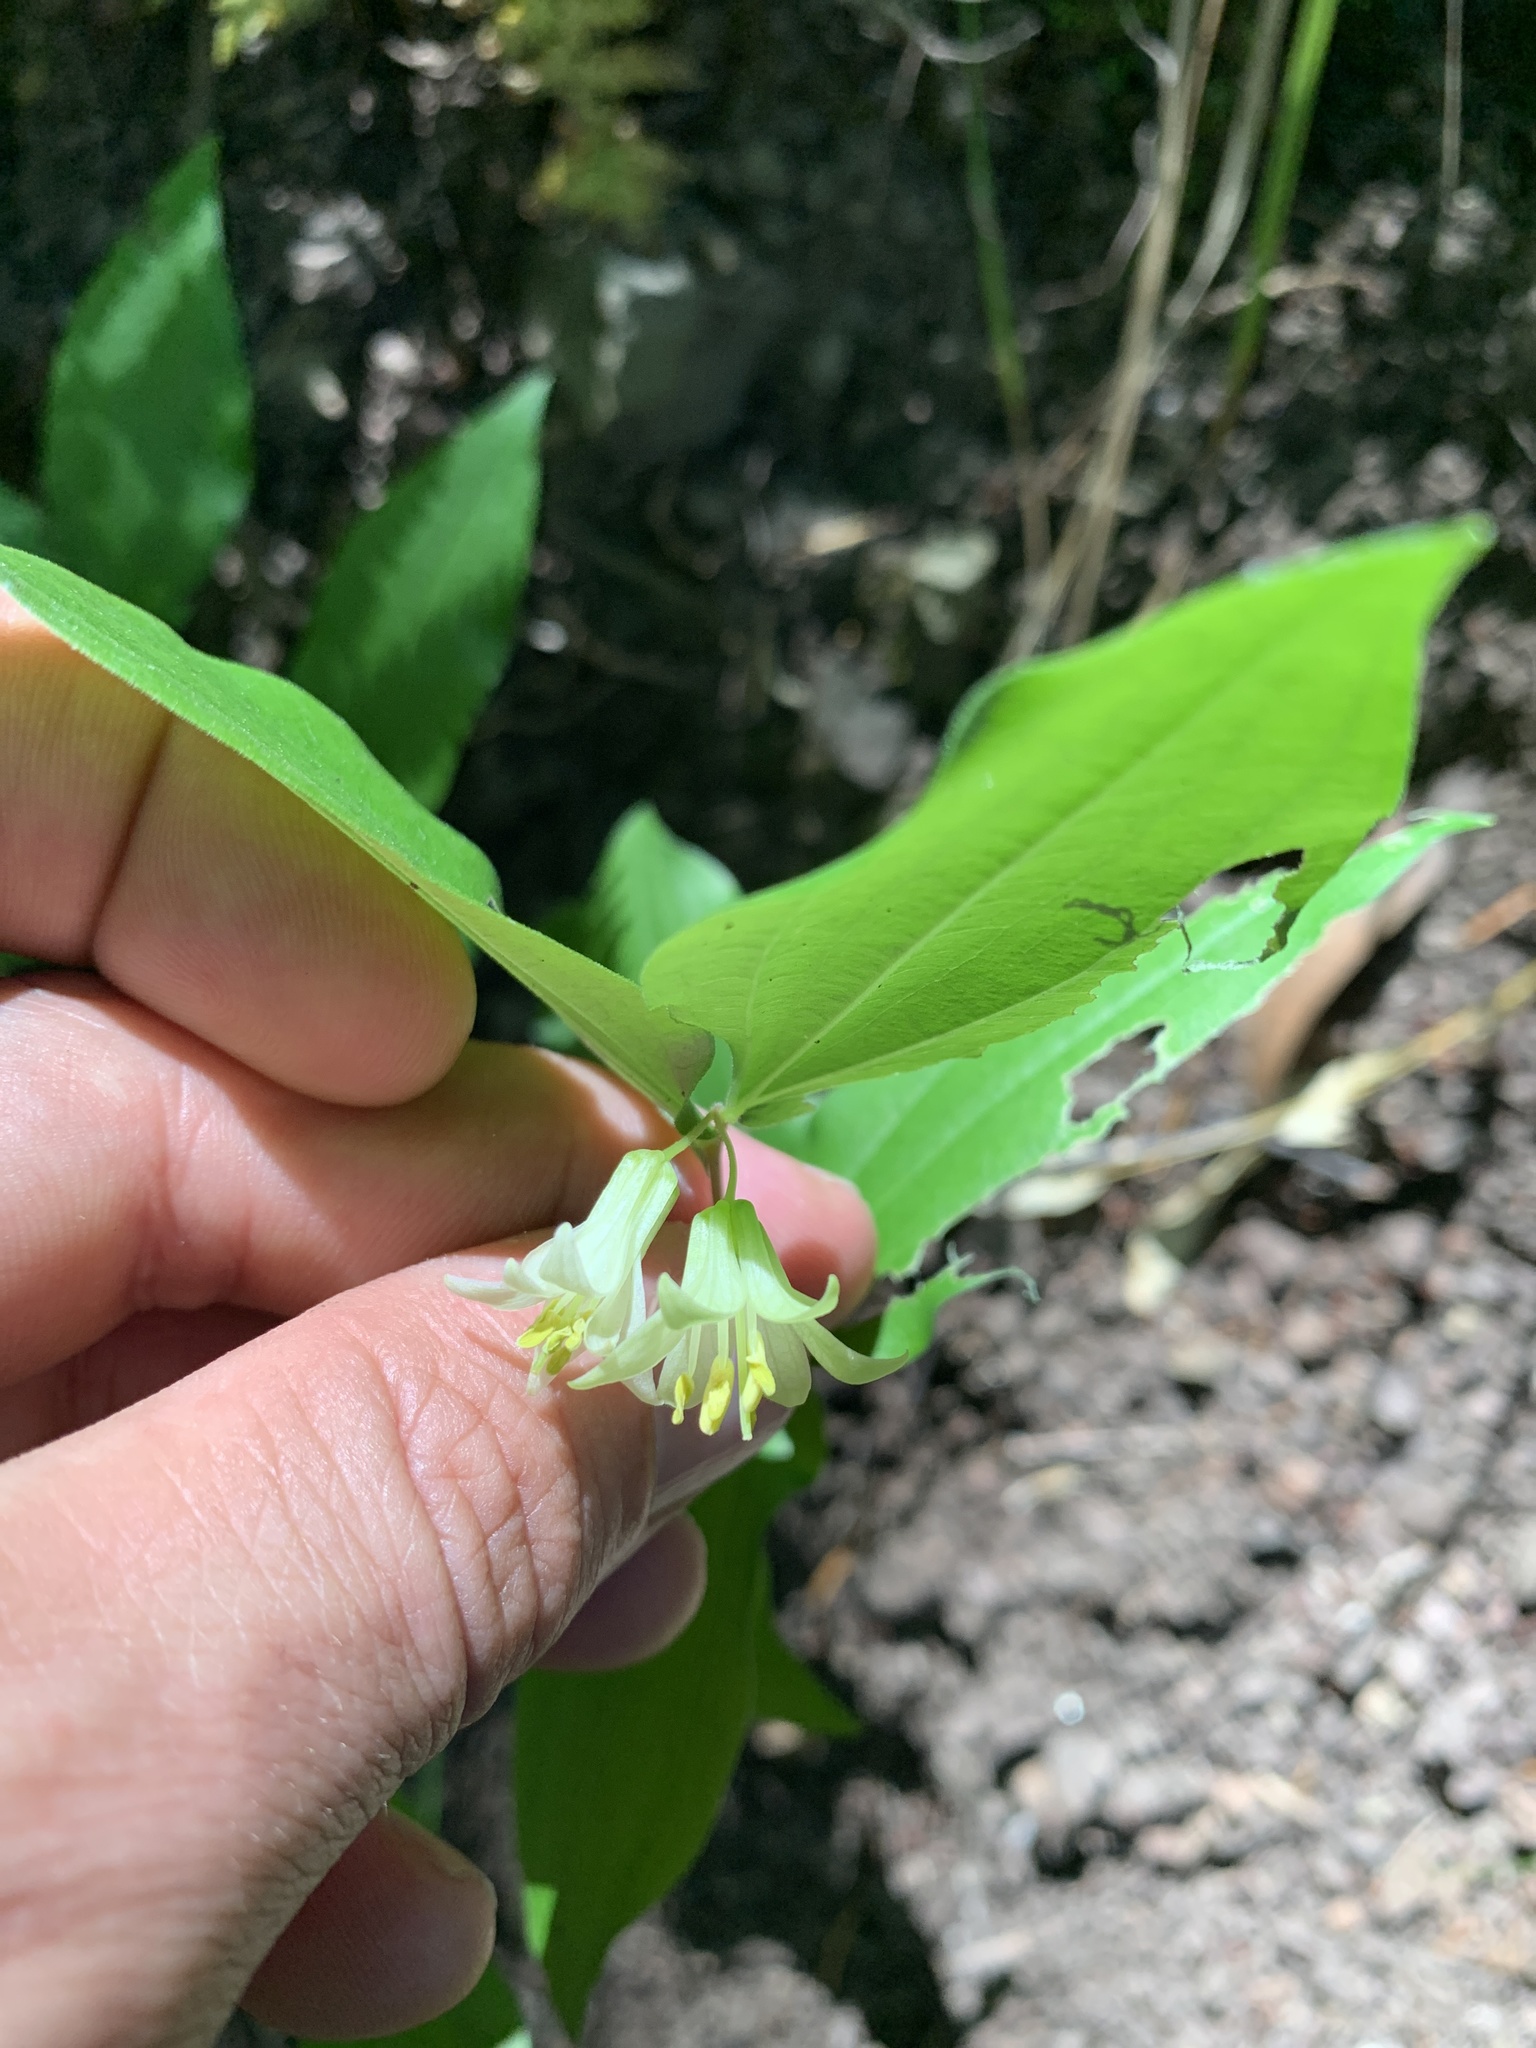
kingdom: Plantae
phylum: Tracheophyta
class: Liliopsida
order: Liliales
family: Liliaceae
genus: Prosartes
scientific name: Prosartes hookeri
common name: Fairy-bells
